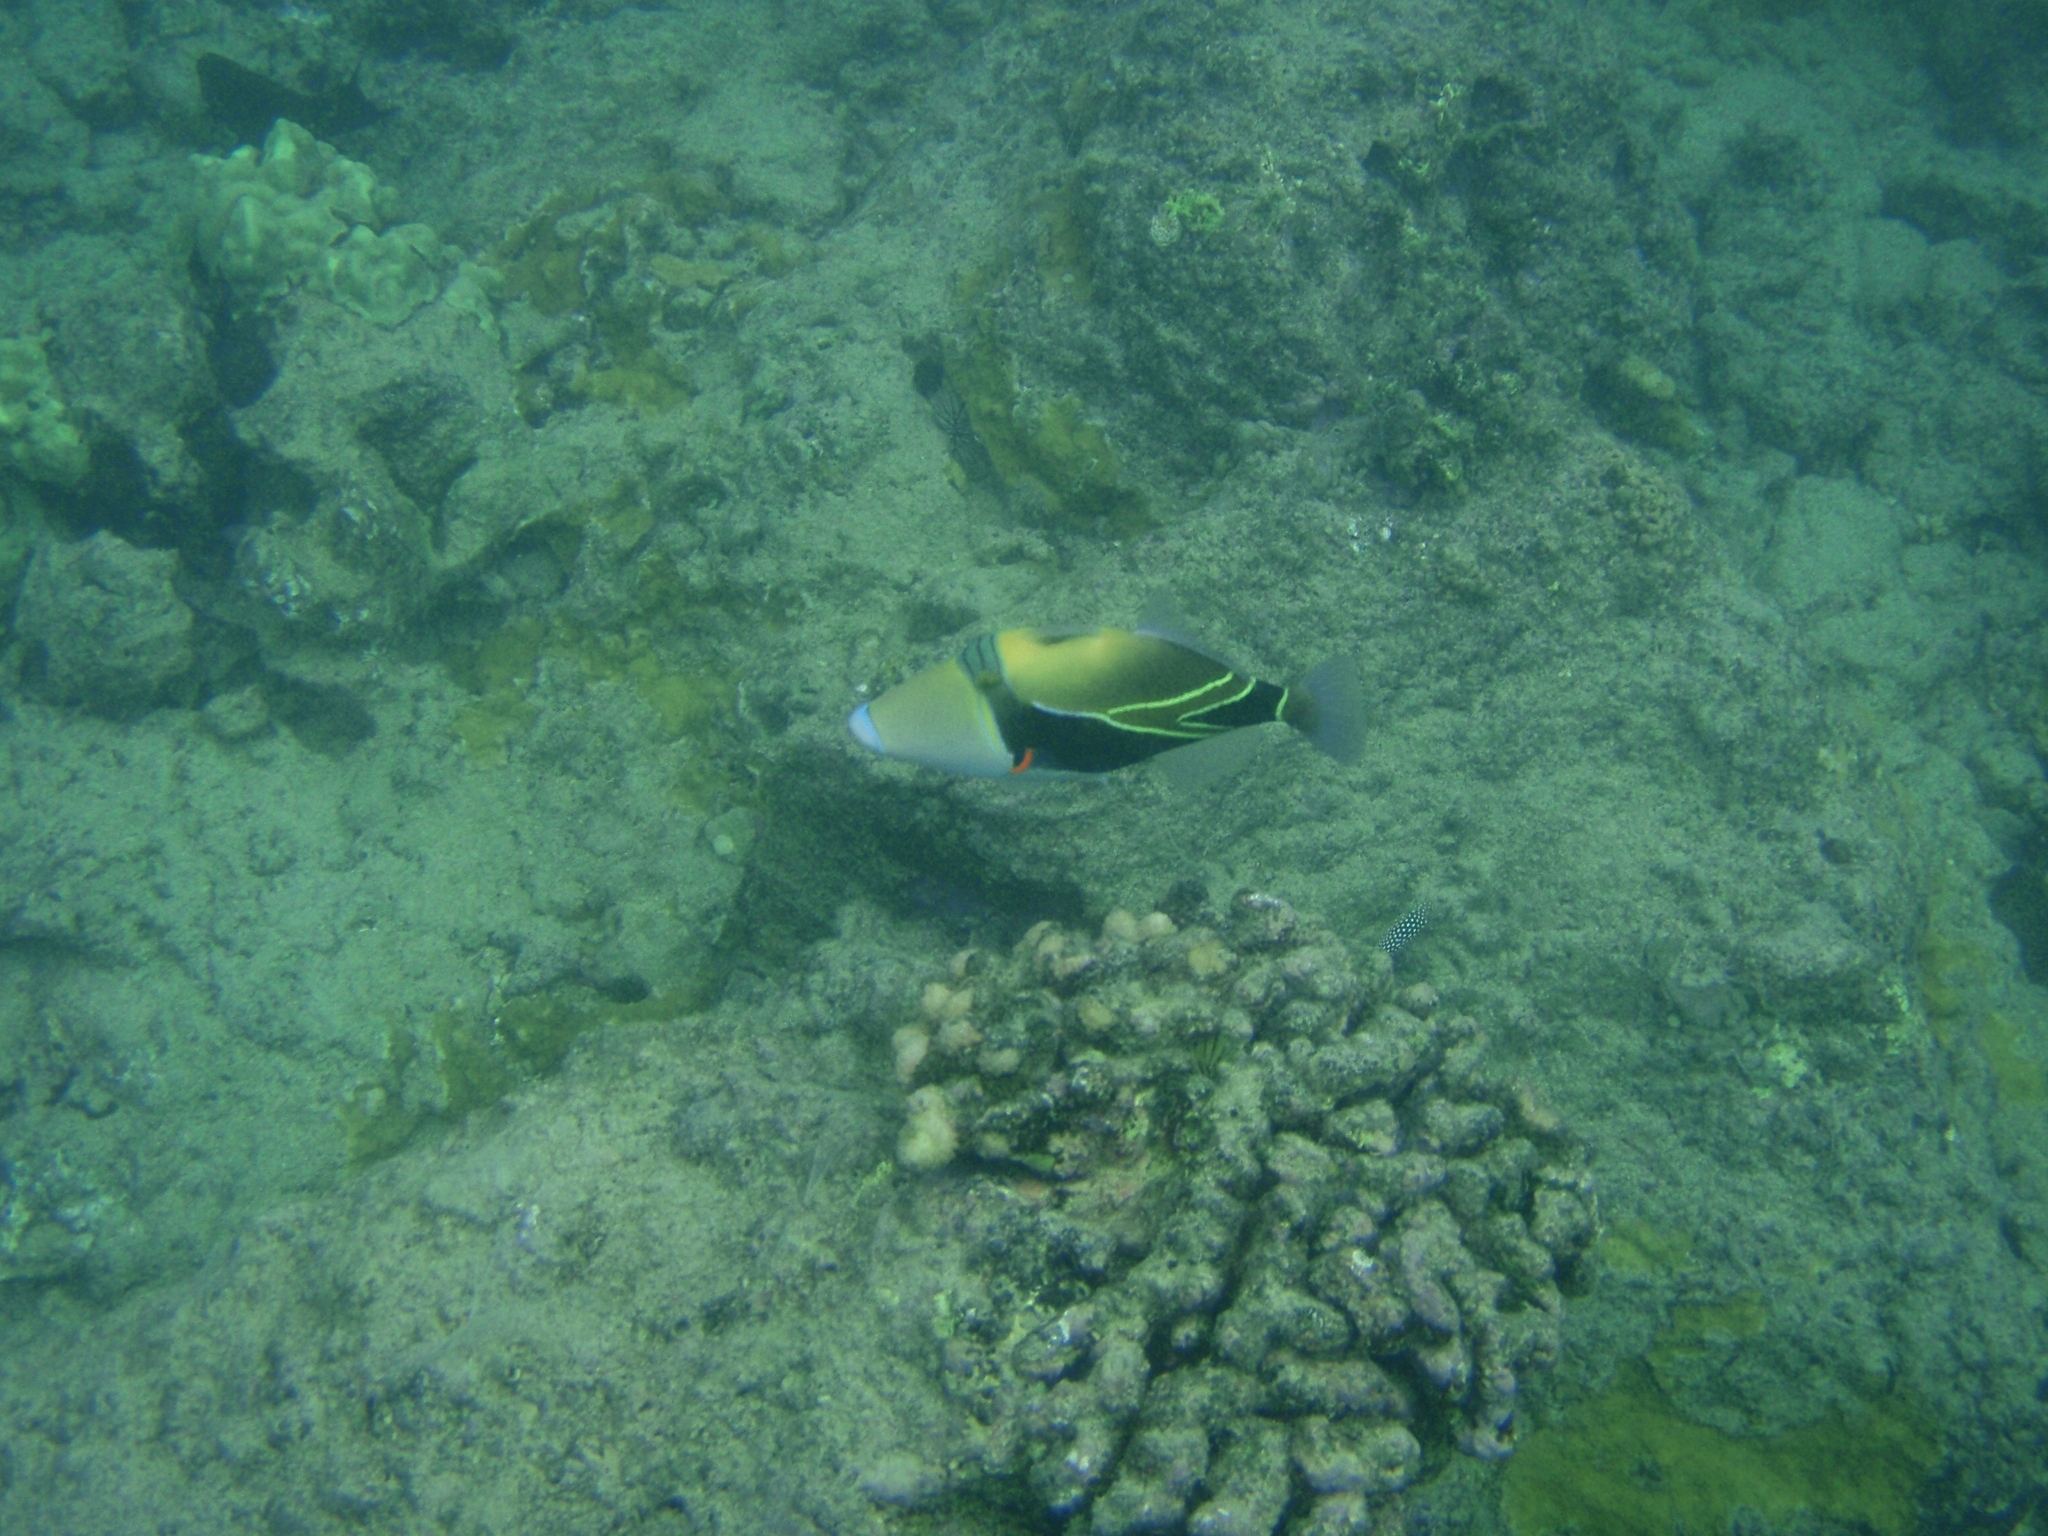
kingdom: Animalia
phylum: Chordata
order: Tetraodontiformes
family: Balistidae
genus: Rhinecanthus
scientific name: Rhinecanthus rectangulus
